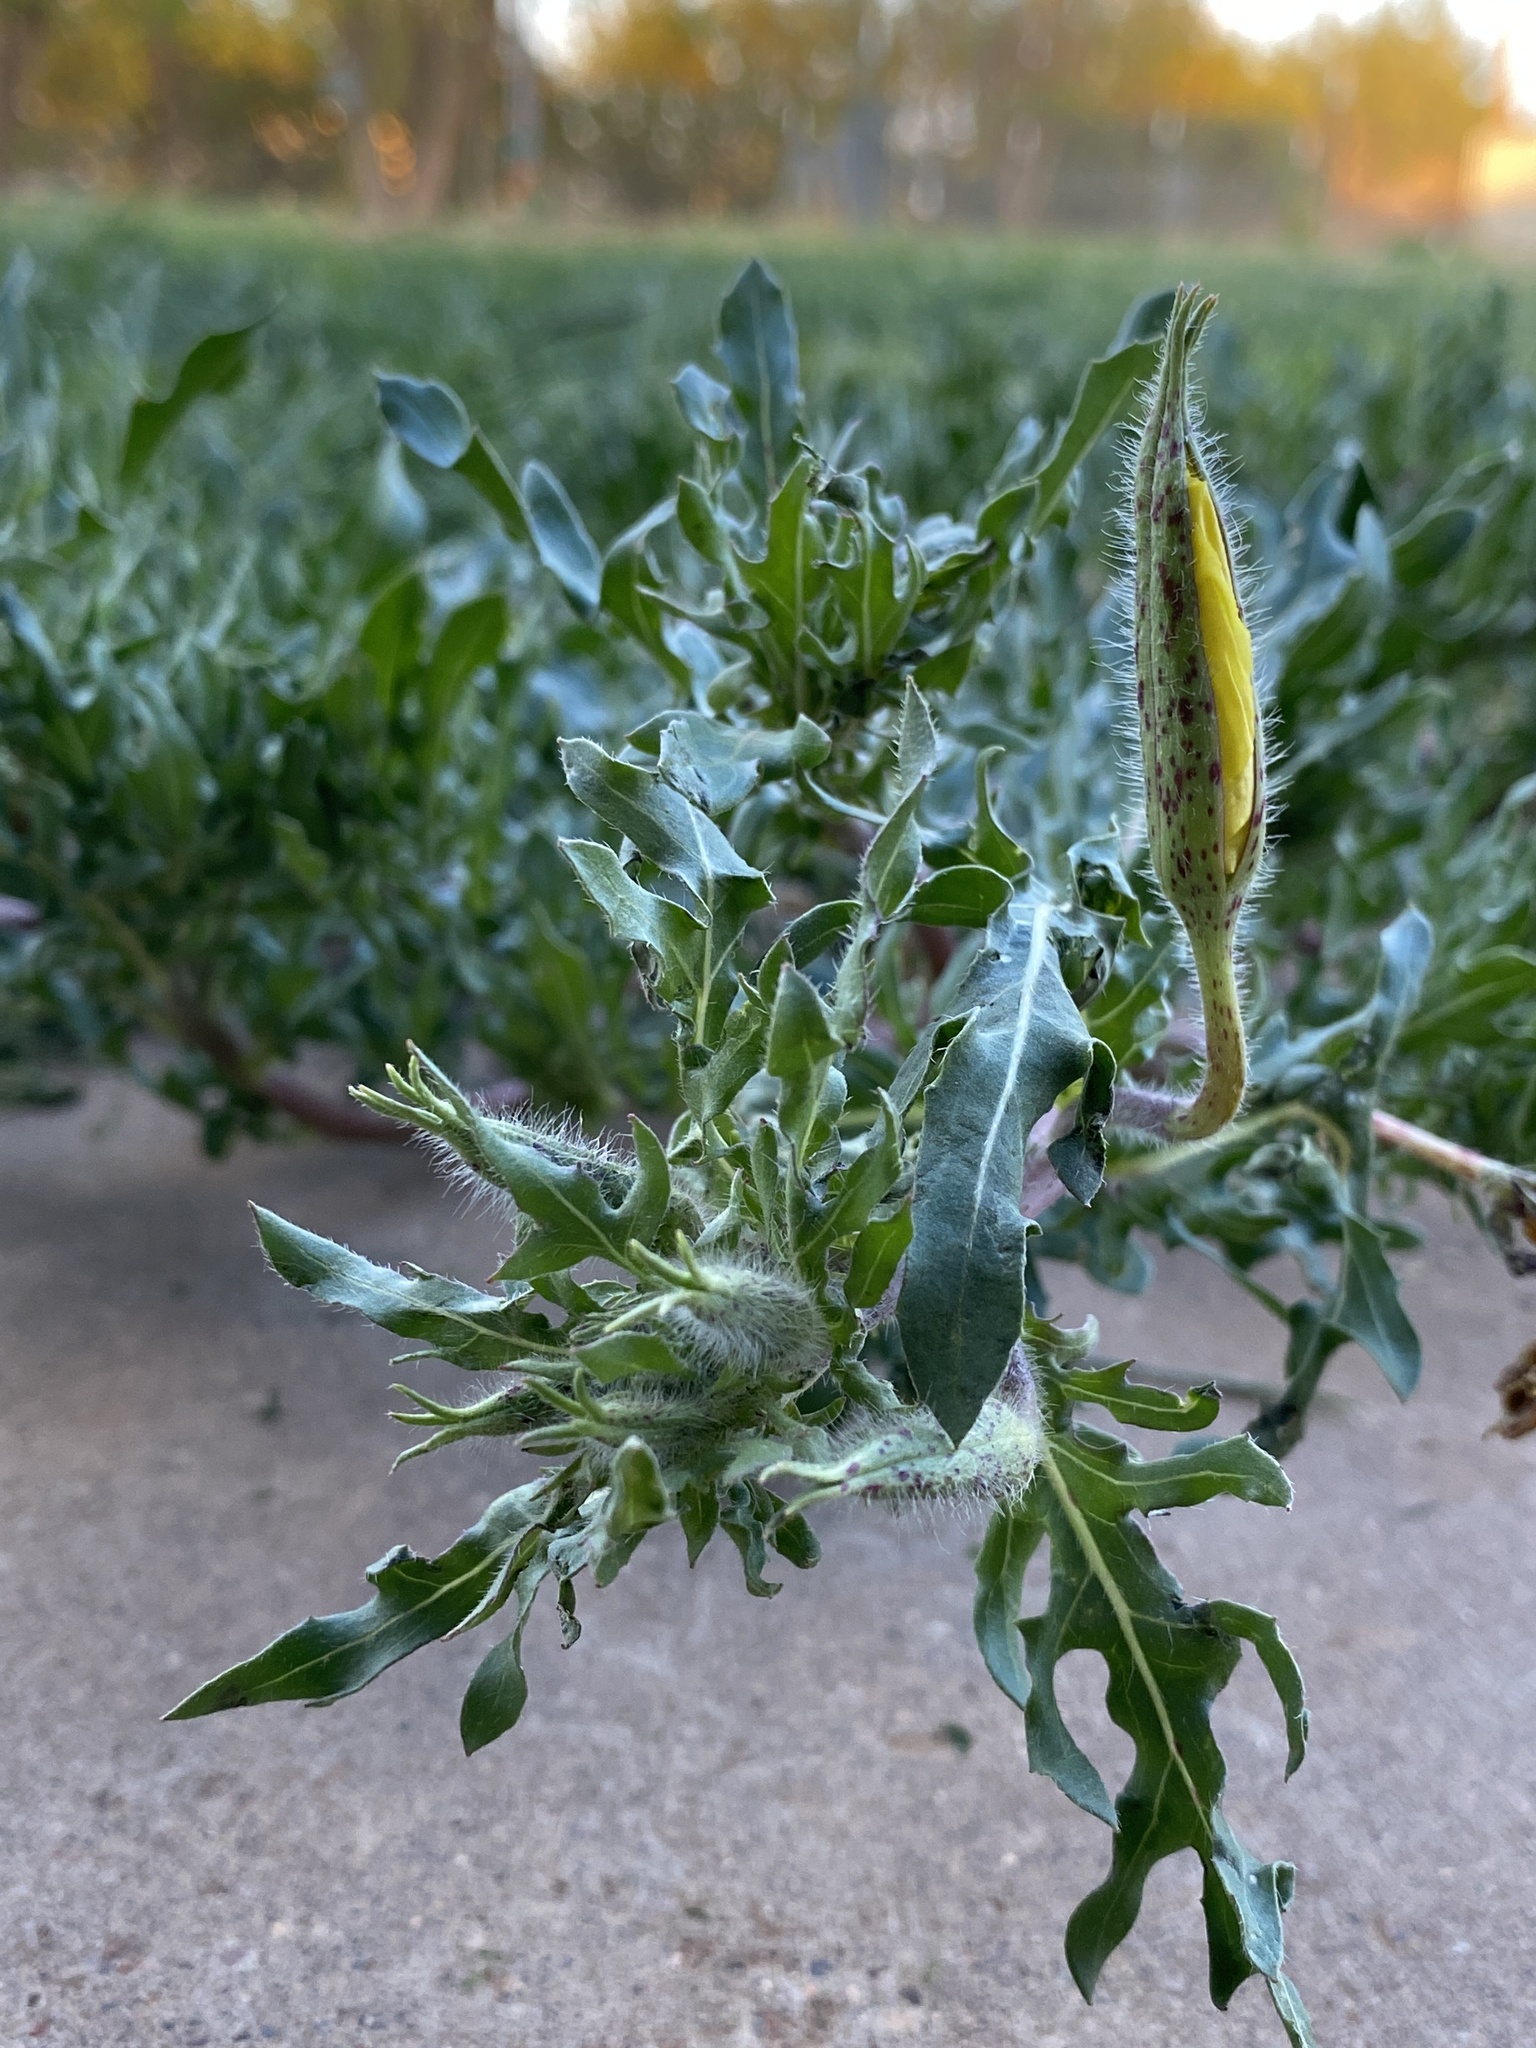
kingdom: Plantae
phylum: Tracheophyta
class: Magnoliopsida
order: Myrtales
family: Onagraceae
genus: Oenothera
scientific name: Oenothera grandis
